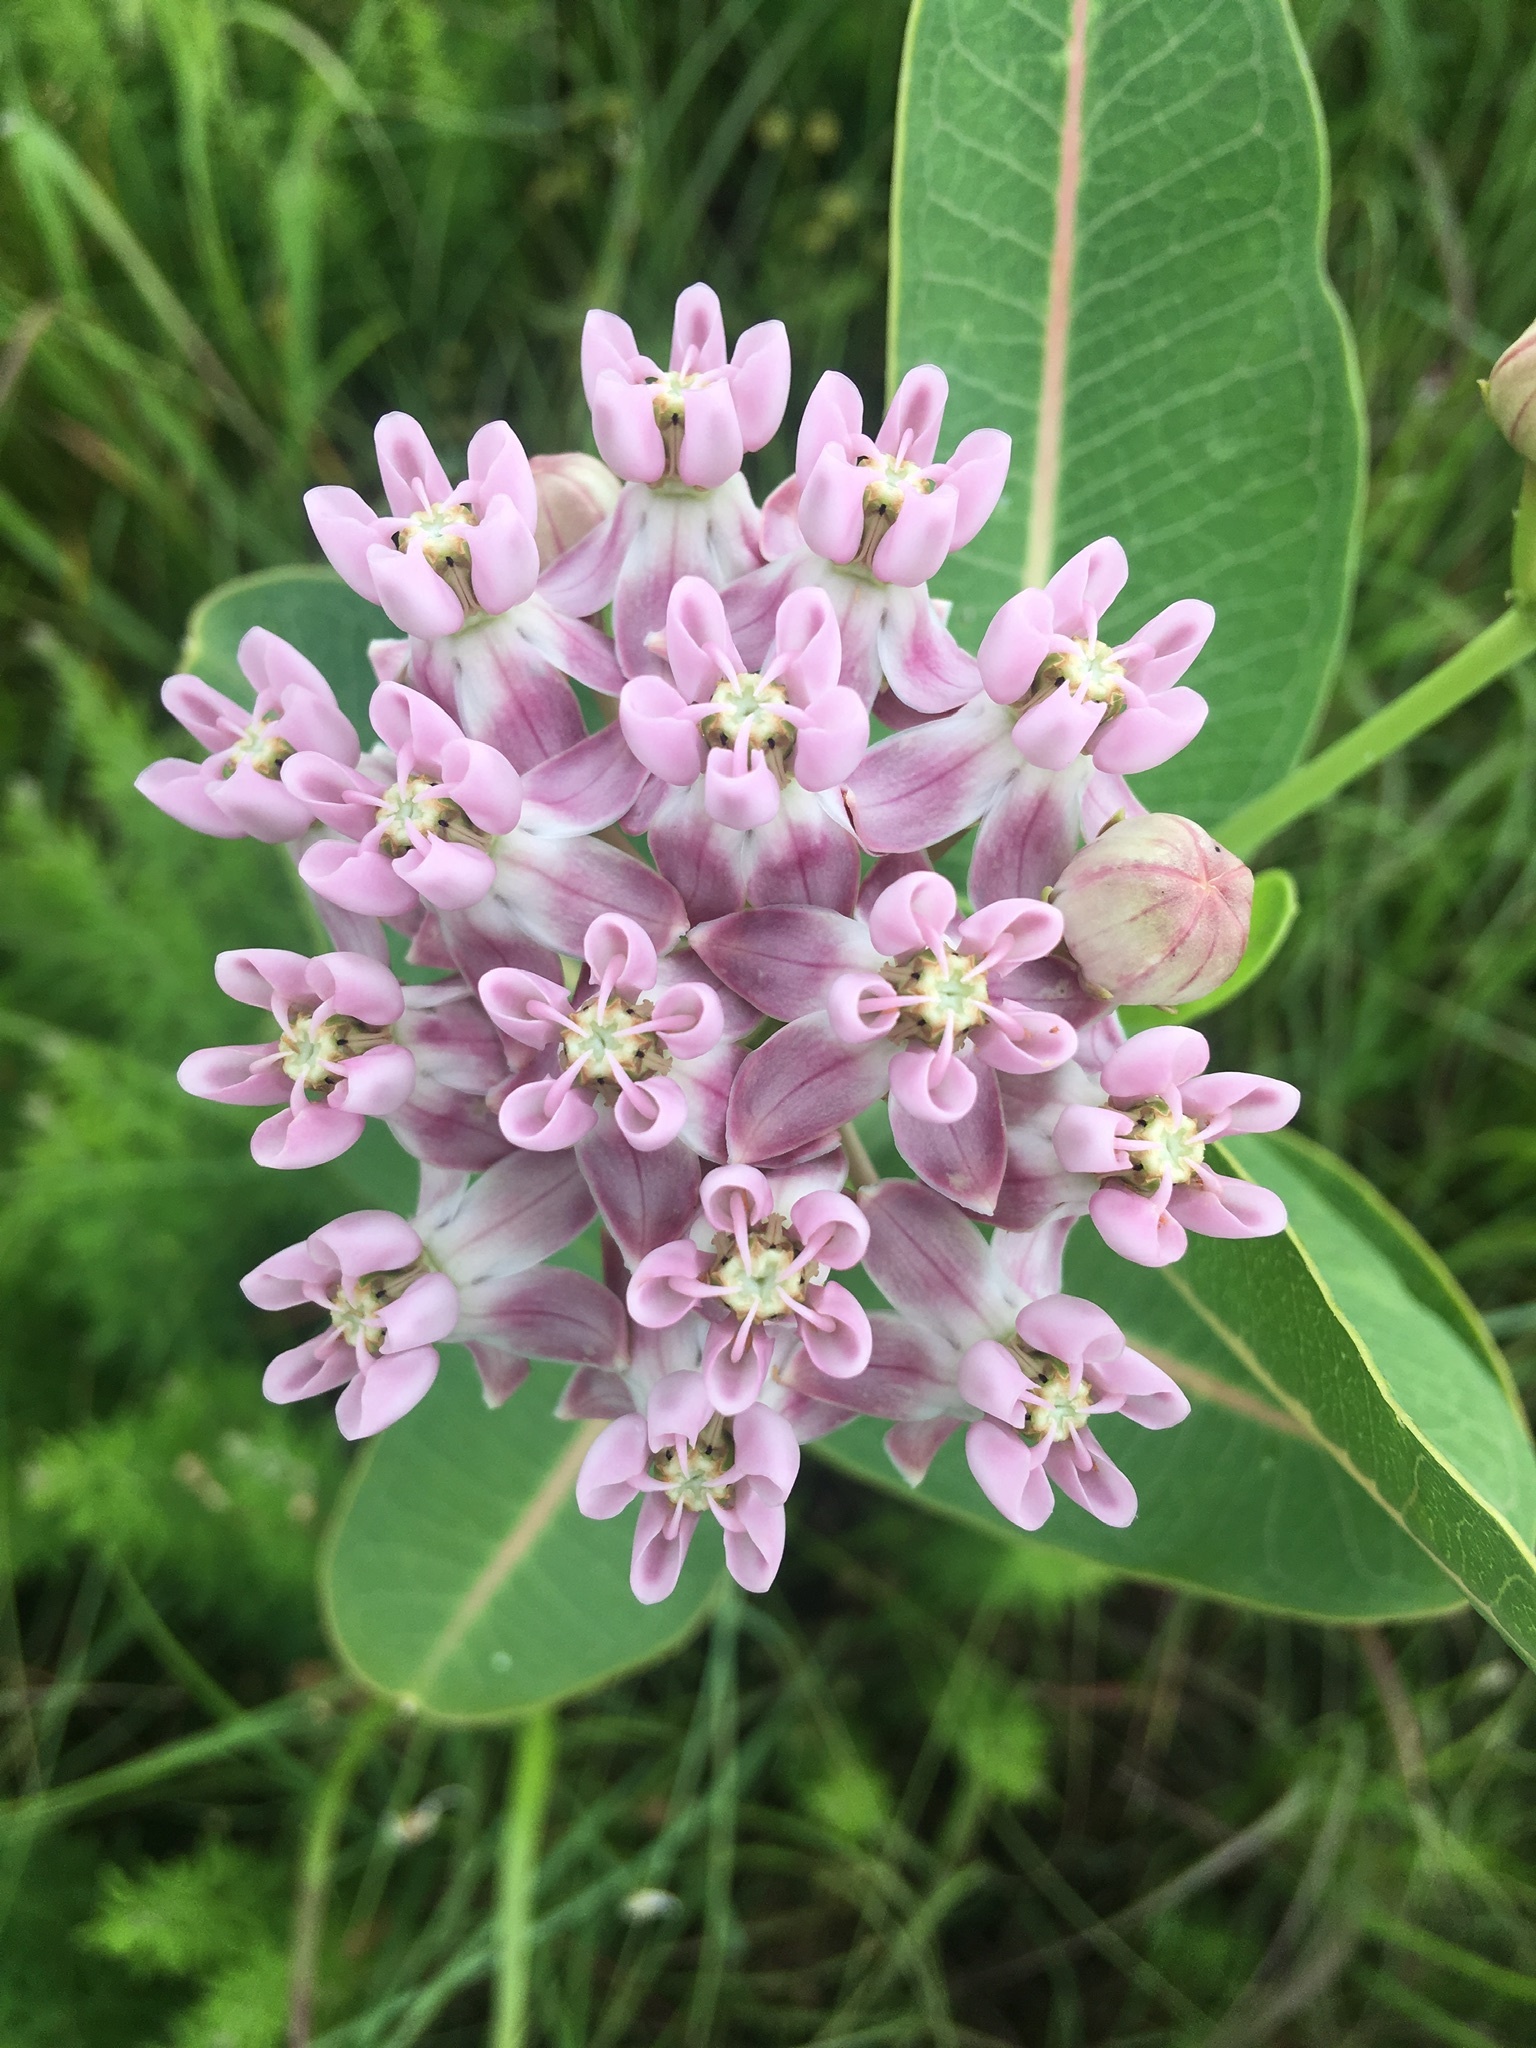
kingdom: Plantae
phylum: Tracheophyta
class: Magnoliopsida
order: Gentianales
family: Apocynaceae
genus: Asclepias
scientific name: Asclepias sullivantii
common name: Prairie milkweed
